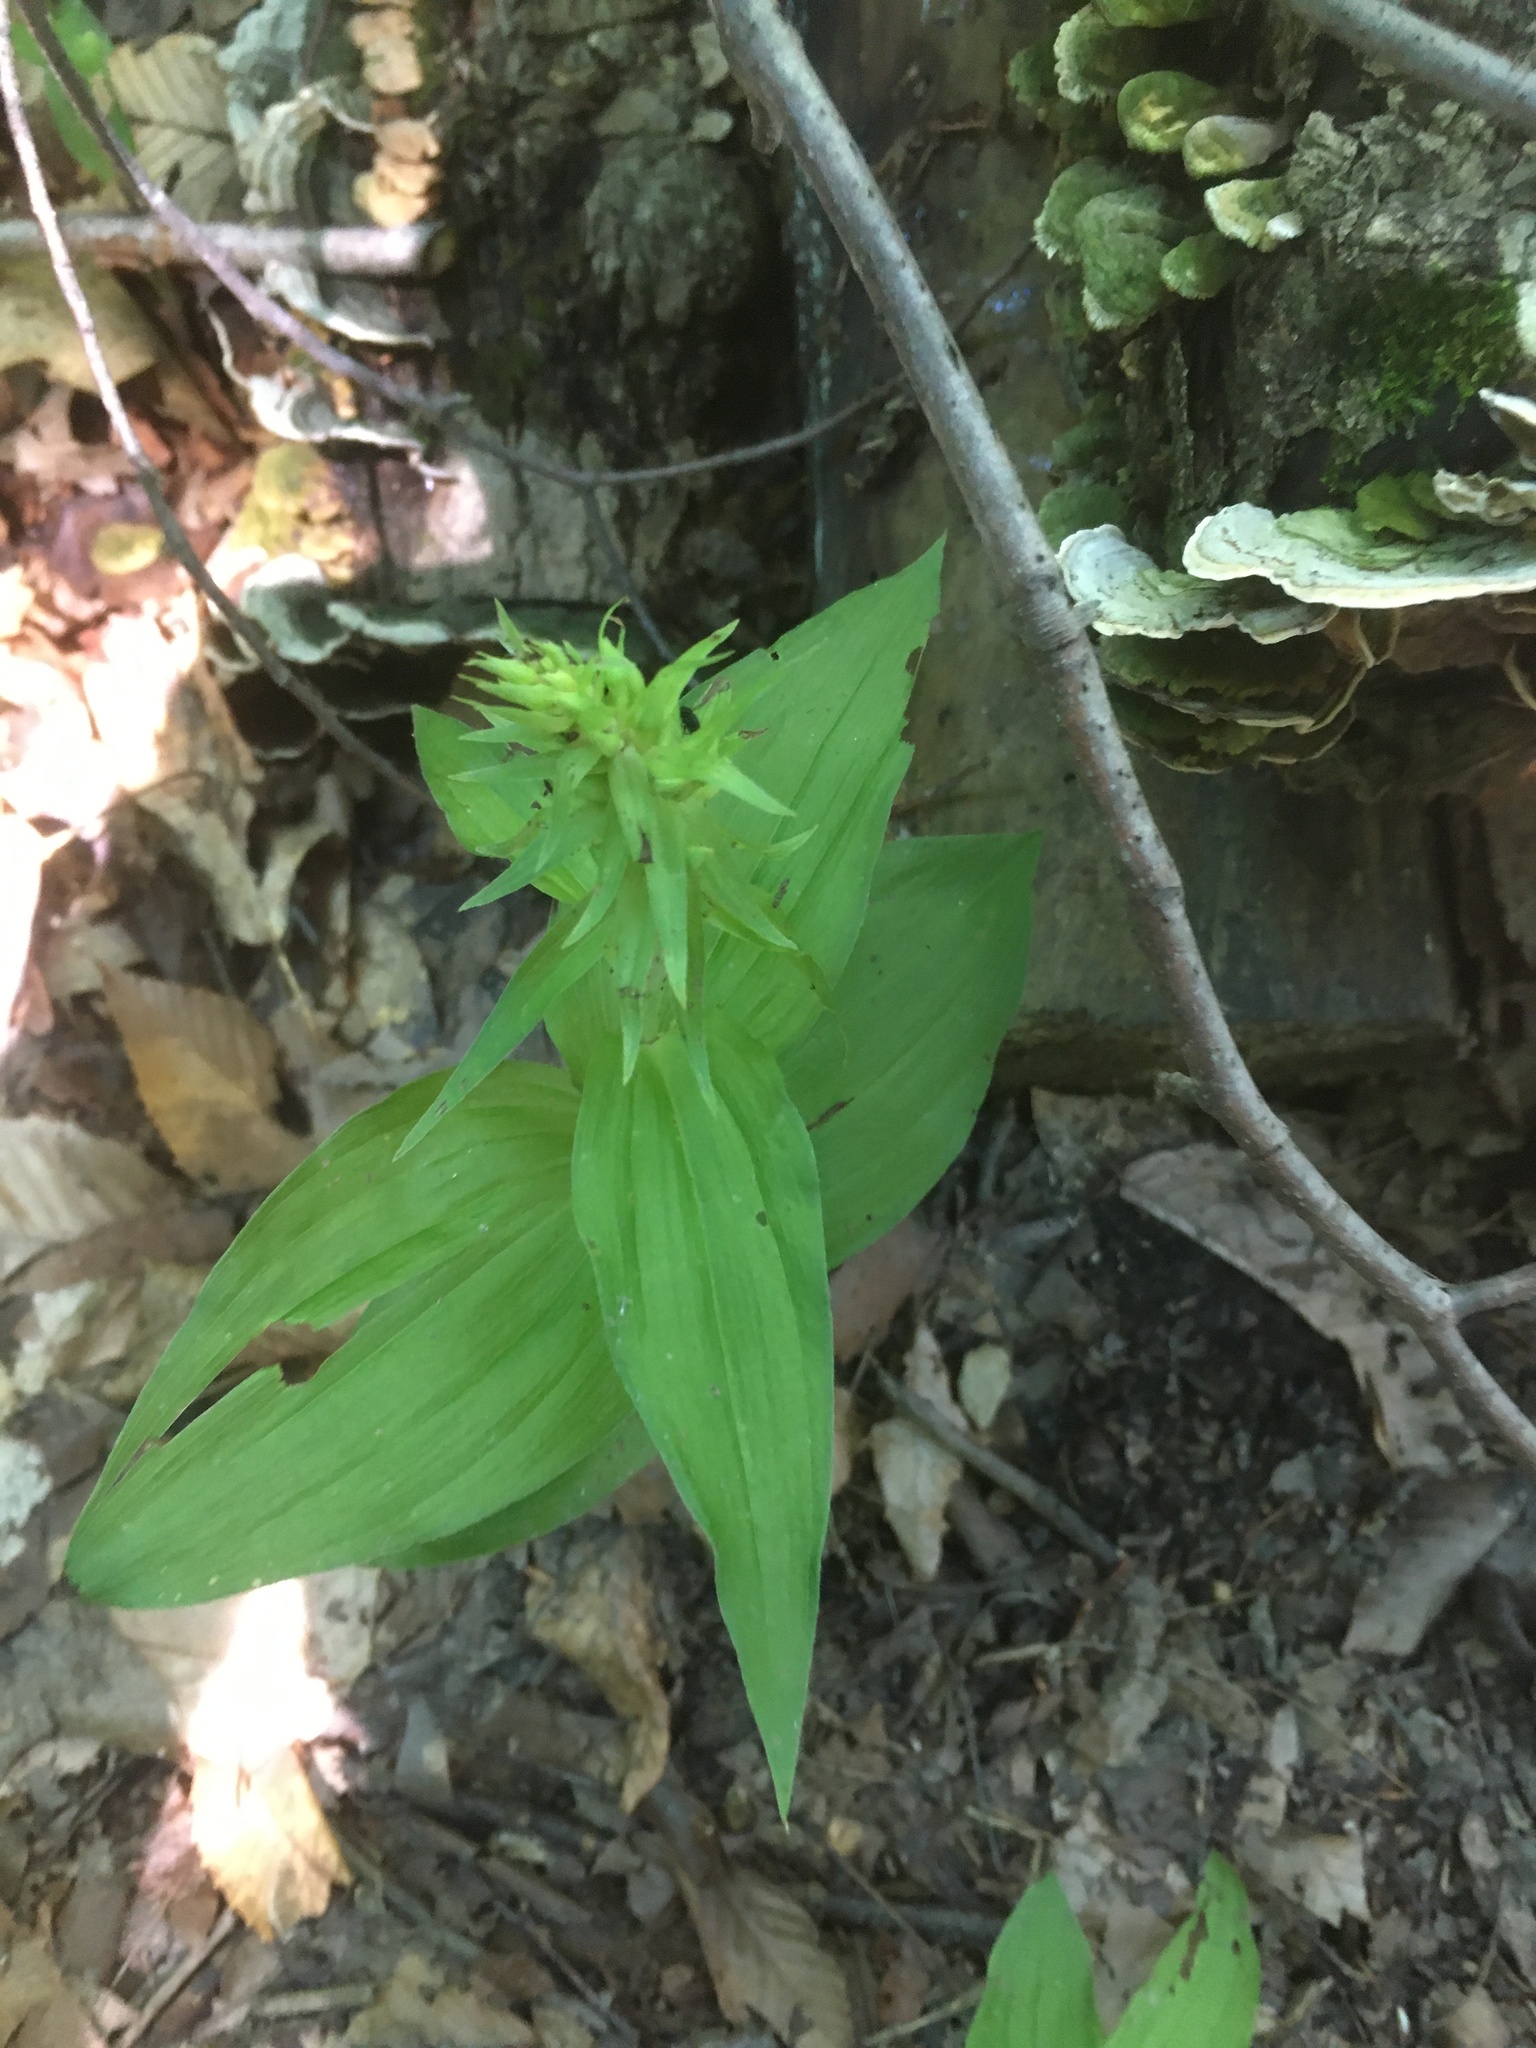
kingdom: Plantae
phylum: Tracheophyta
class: Liliopsida
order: Asparagales
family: Orchidaceae
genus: Epipactis
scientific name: Epipactis helleborine
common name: Broad-leaved helleborine
